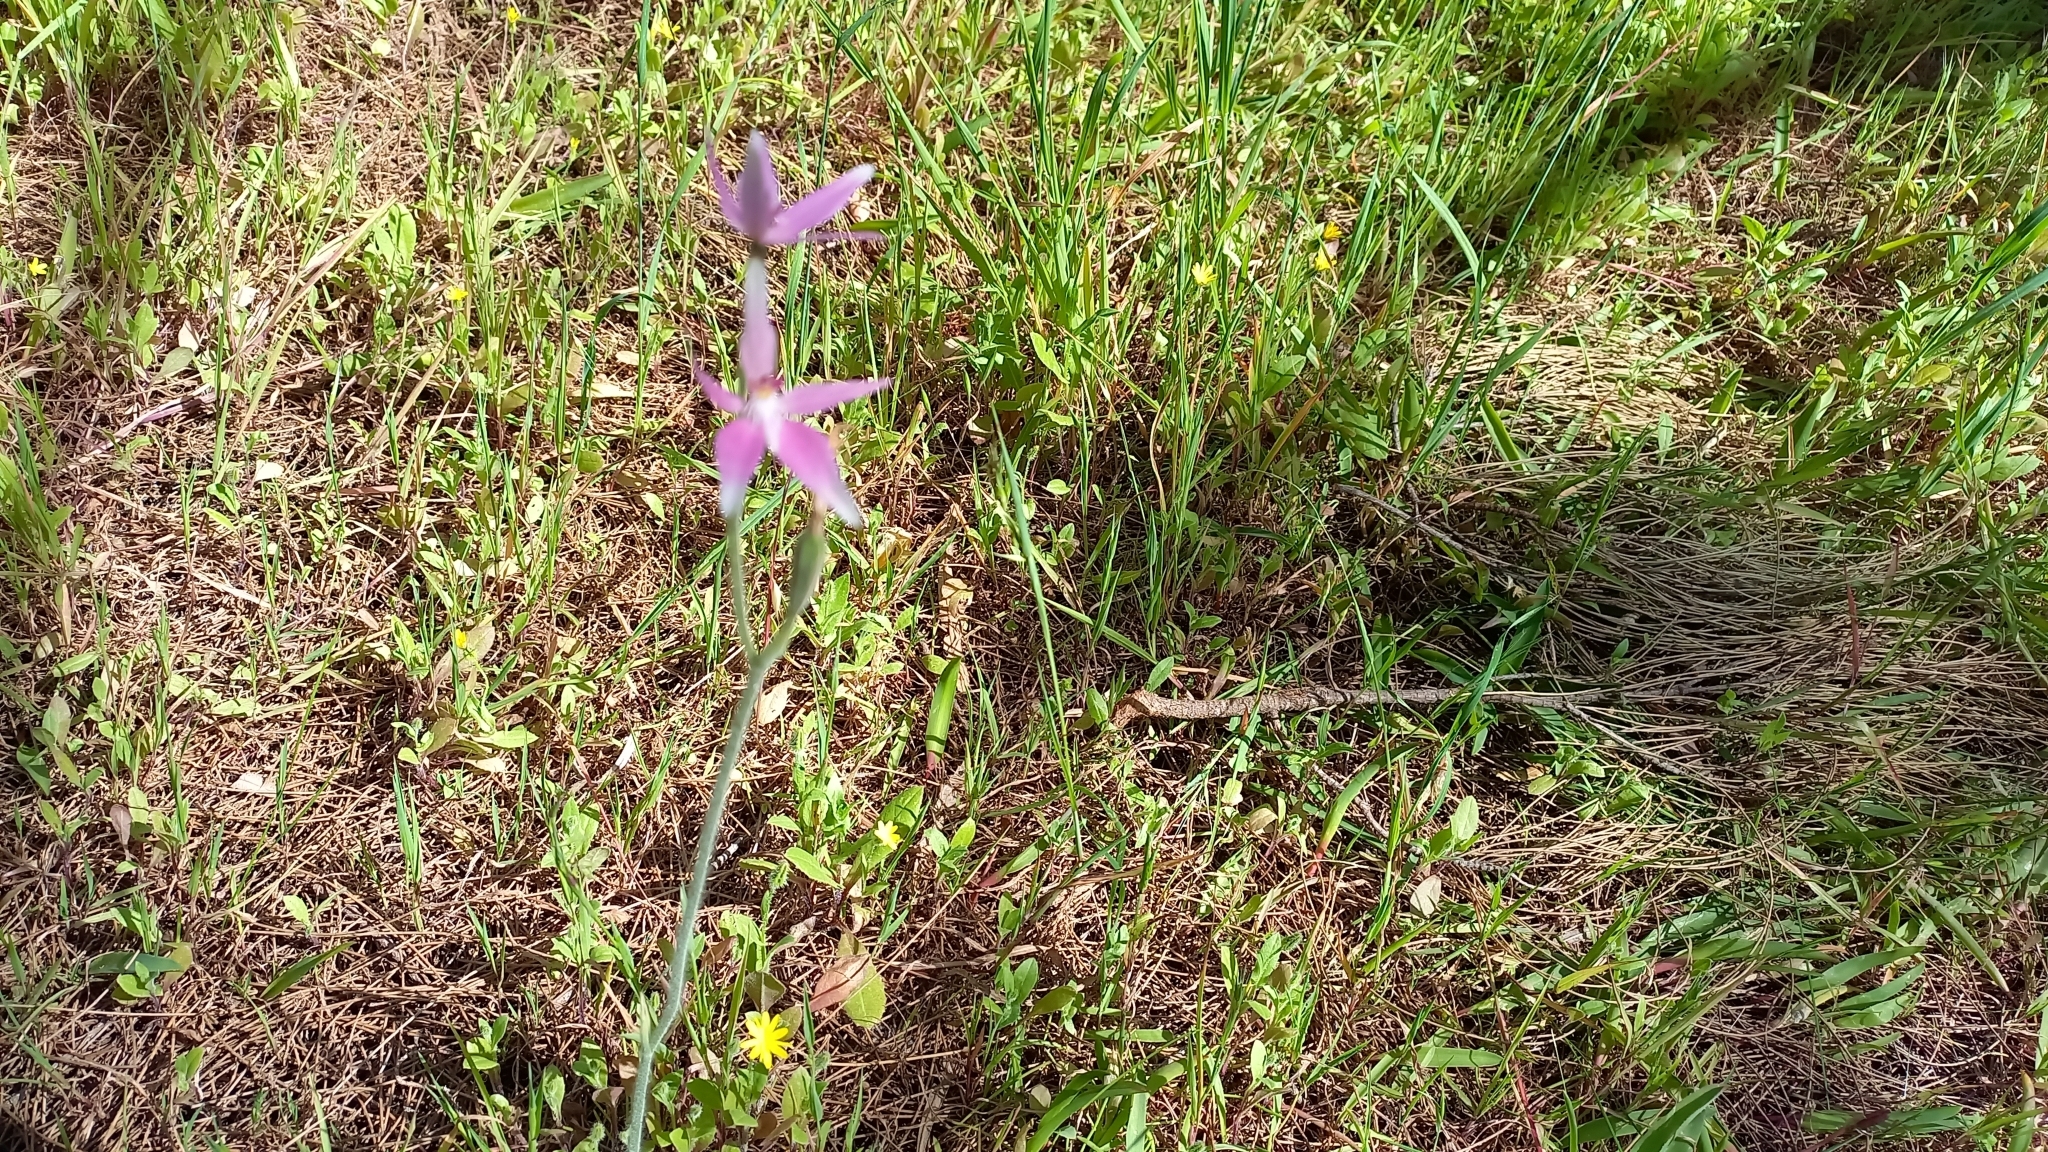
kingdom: Plantae
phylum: Tracheophyta
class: Liliopsida
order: Asparagales
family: Orchidaceae
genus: Caladenia
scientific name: Caladenia latifolia
